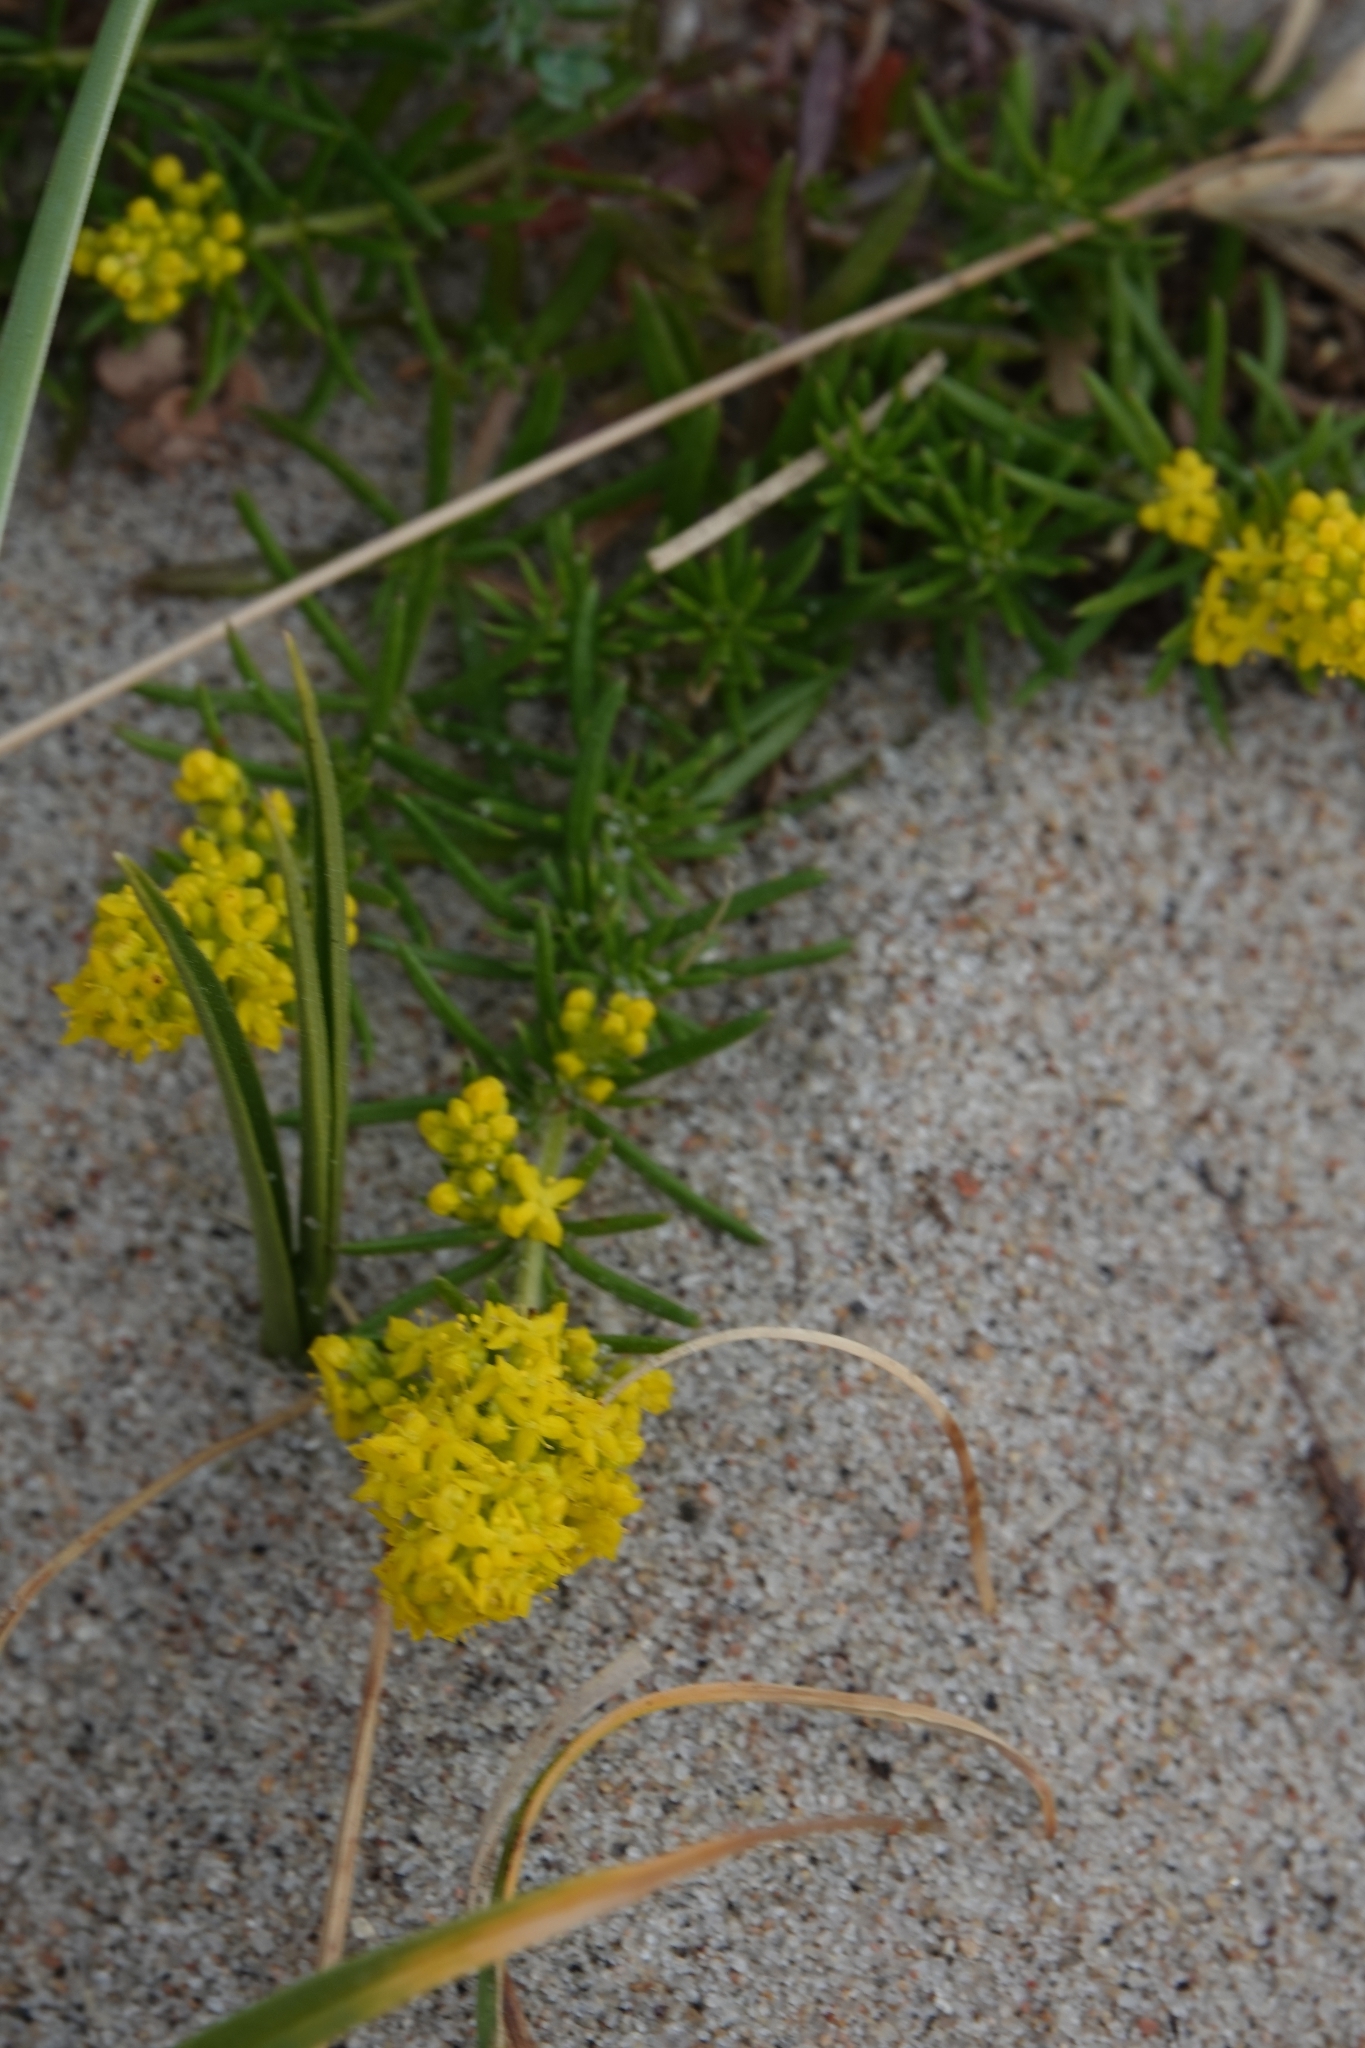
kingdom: Plantae
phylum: Tracheophyta
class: Magnoliopsida
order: Gentianales
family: Rubiaceae
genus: Galium
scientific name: Galium verum
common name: Lady's bedstraw
